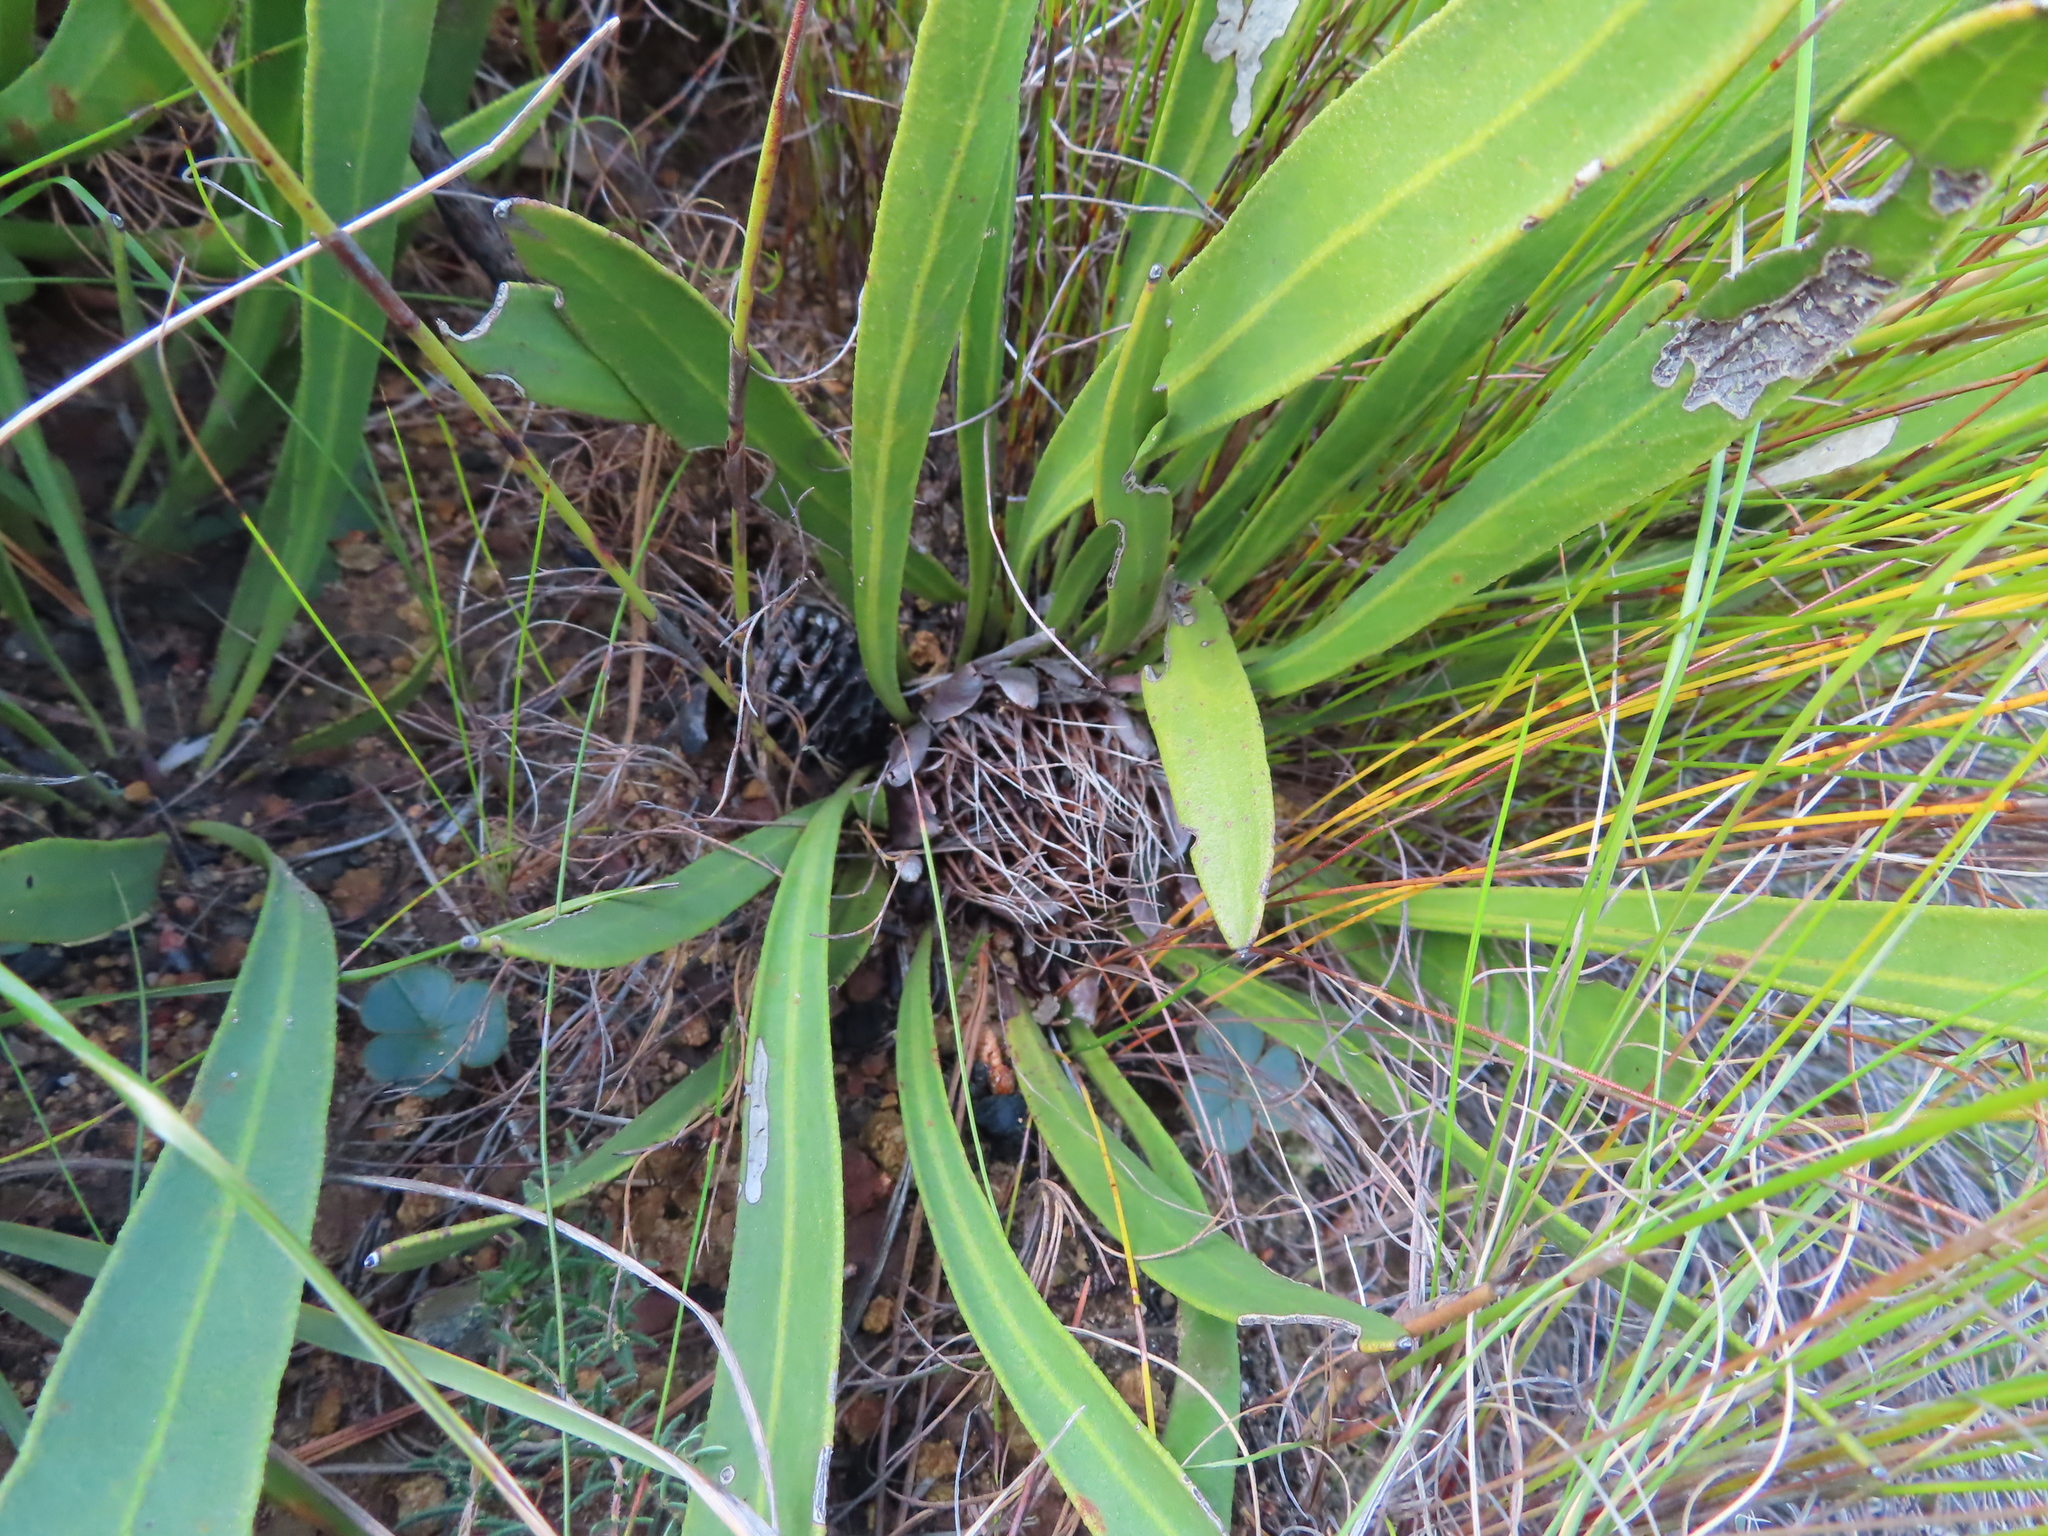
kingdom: Plantae
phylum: Tracheophyta
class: Magnoliopsida
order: Proteales
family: Proteaceae
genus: Protea
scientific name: Protea scabra
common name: Sandpaper-leaf sugarbush
